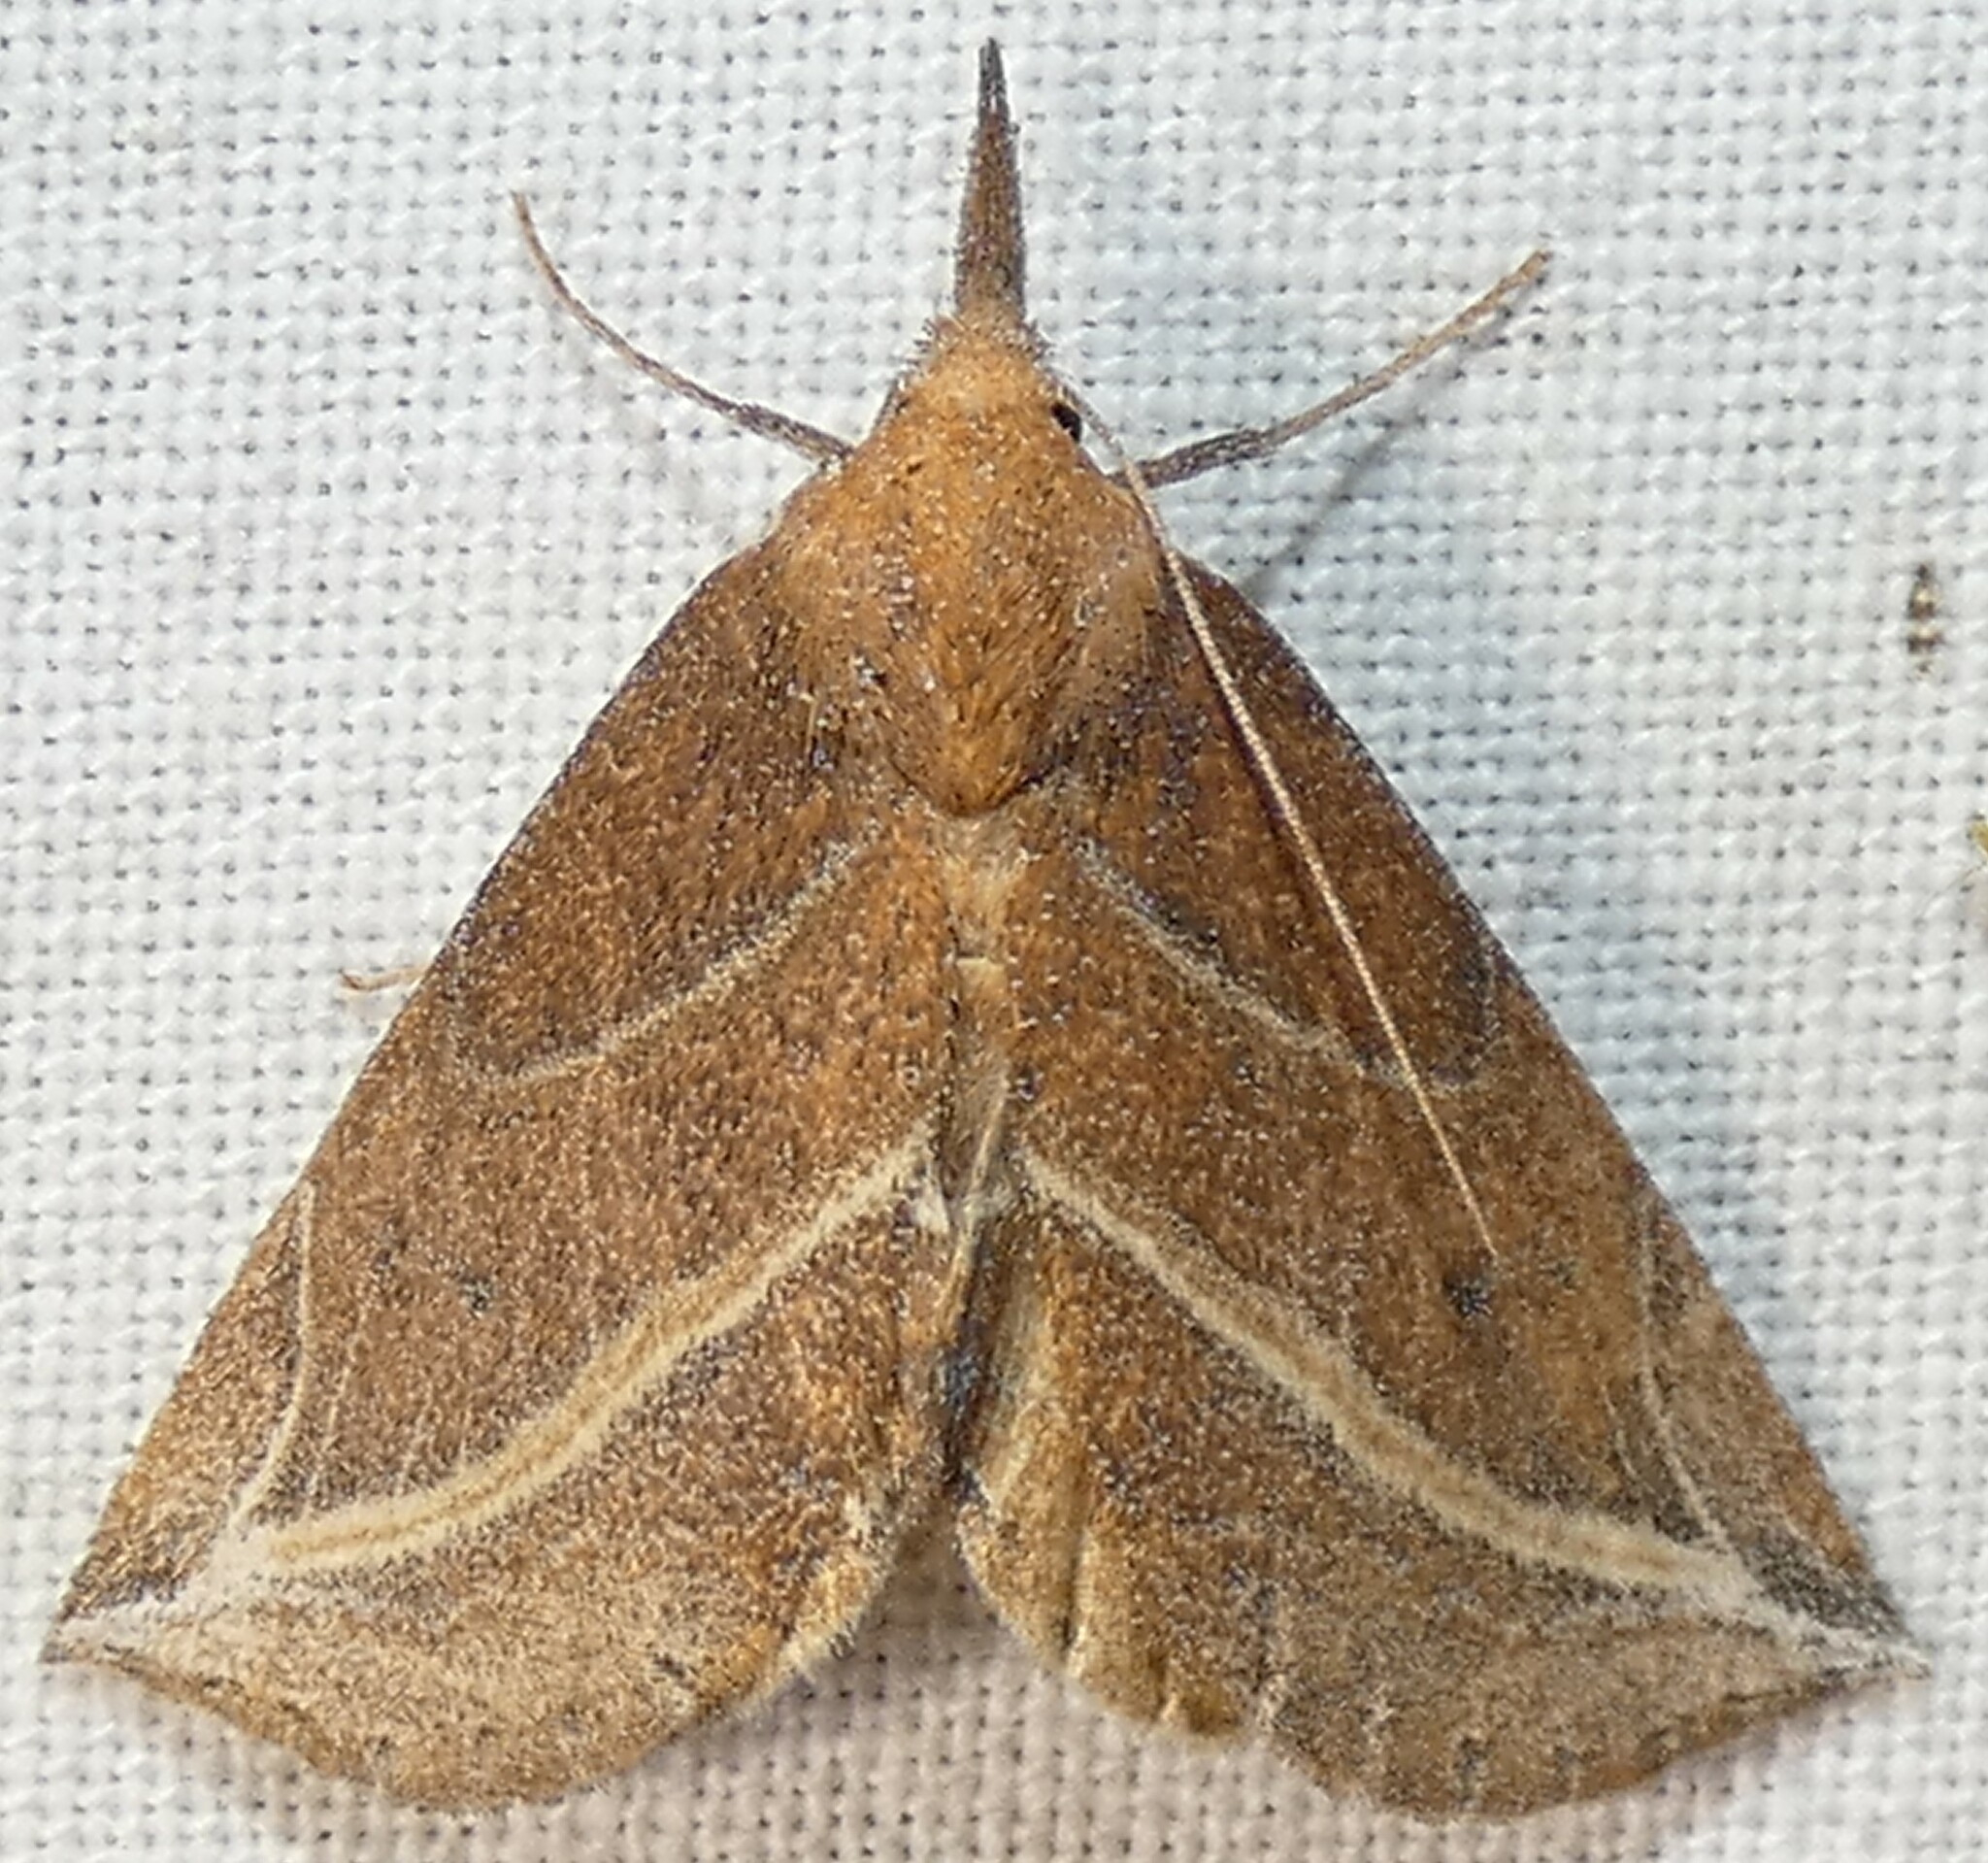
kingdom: Animalia
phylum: Arthropoda
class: Insecta
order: Lepidoptera
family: Erebidae
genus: Phyprosopus
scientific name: Phyprosopus callitrichoides
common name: Curved-lined owlet
